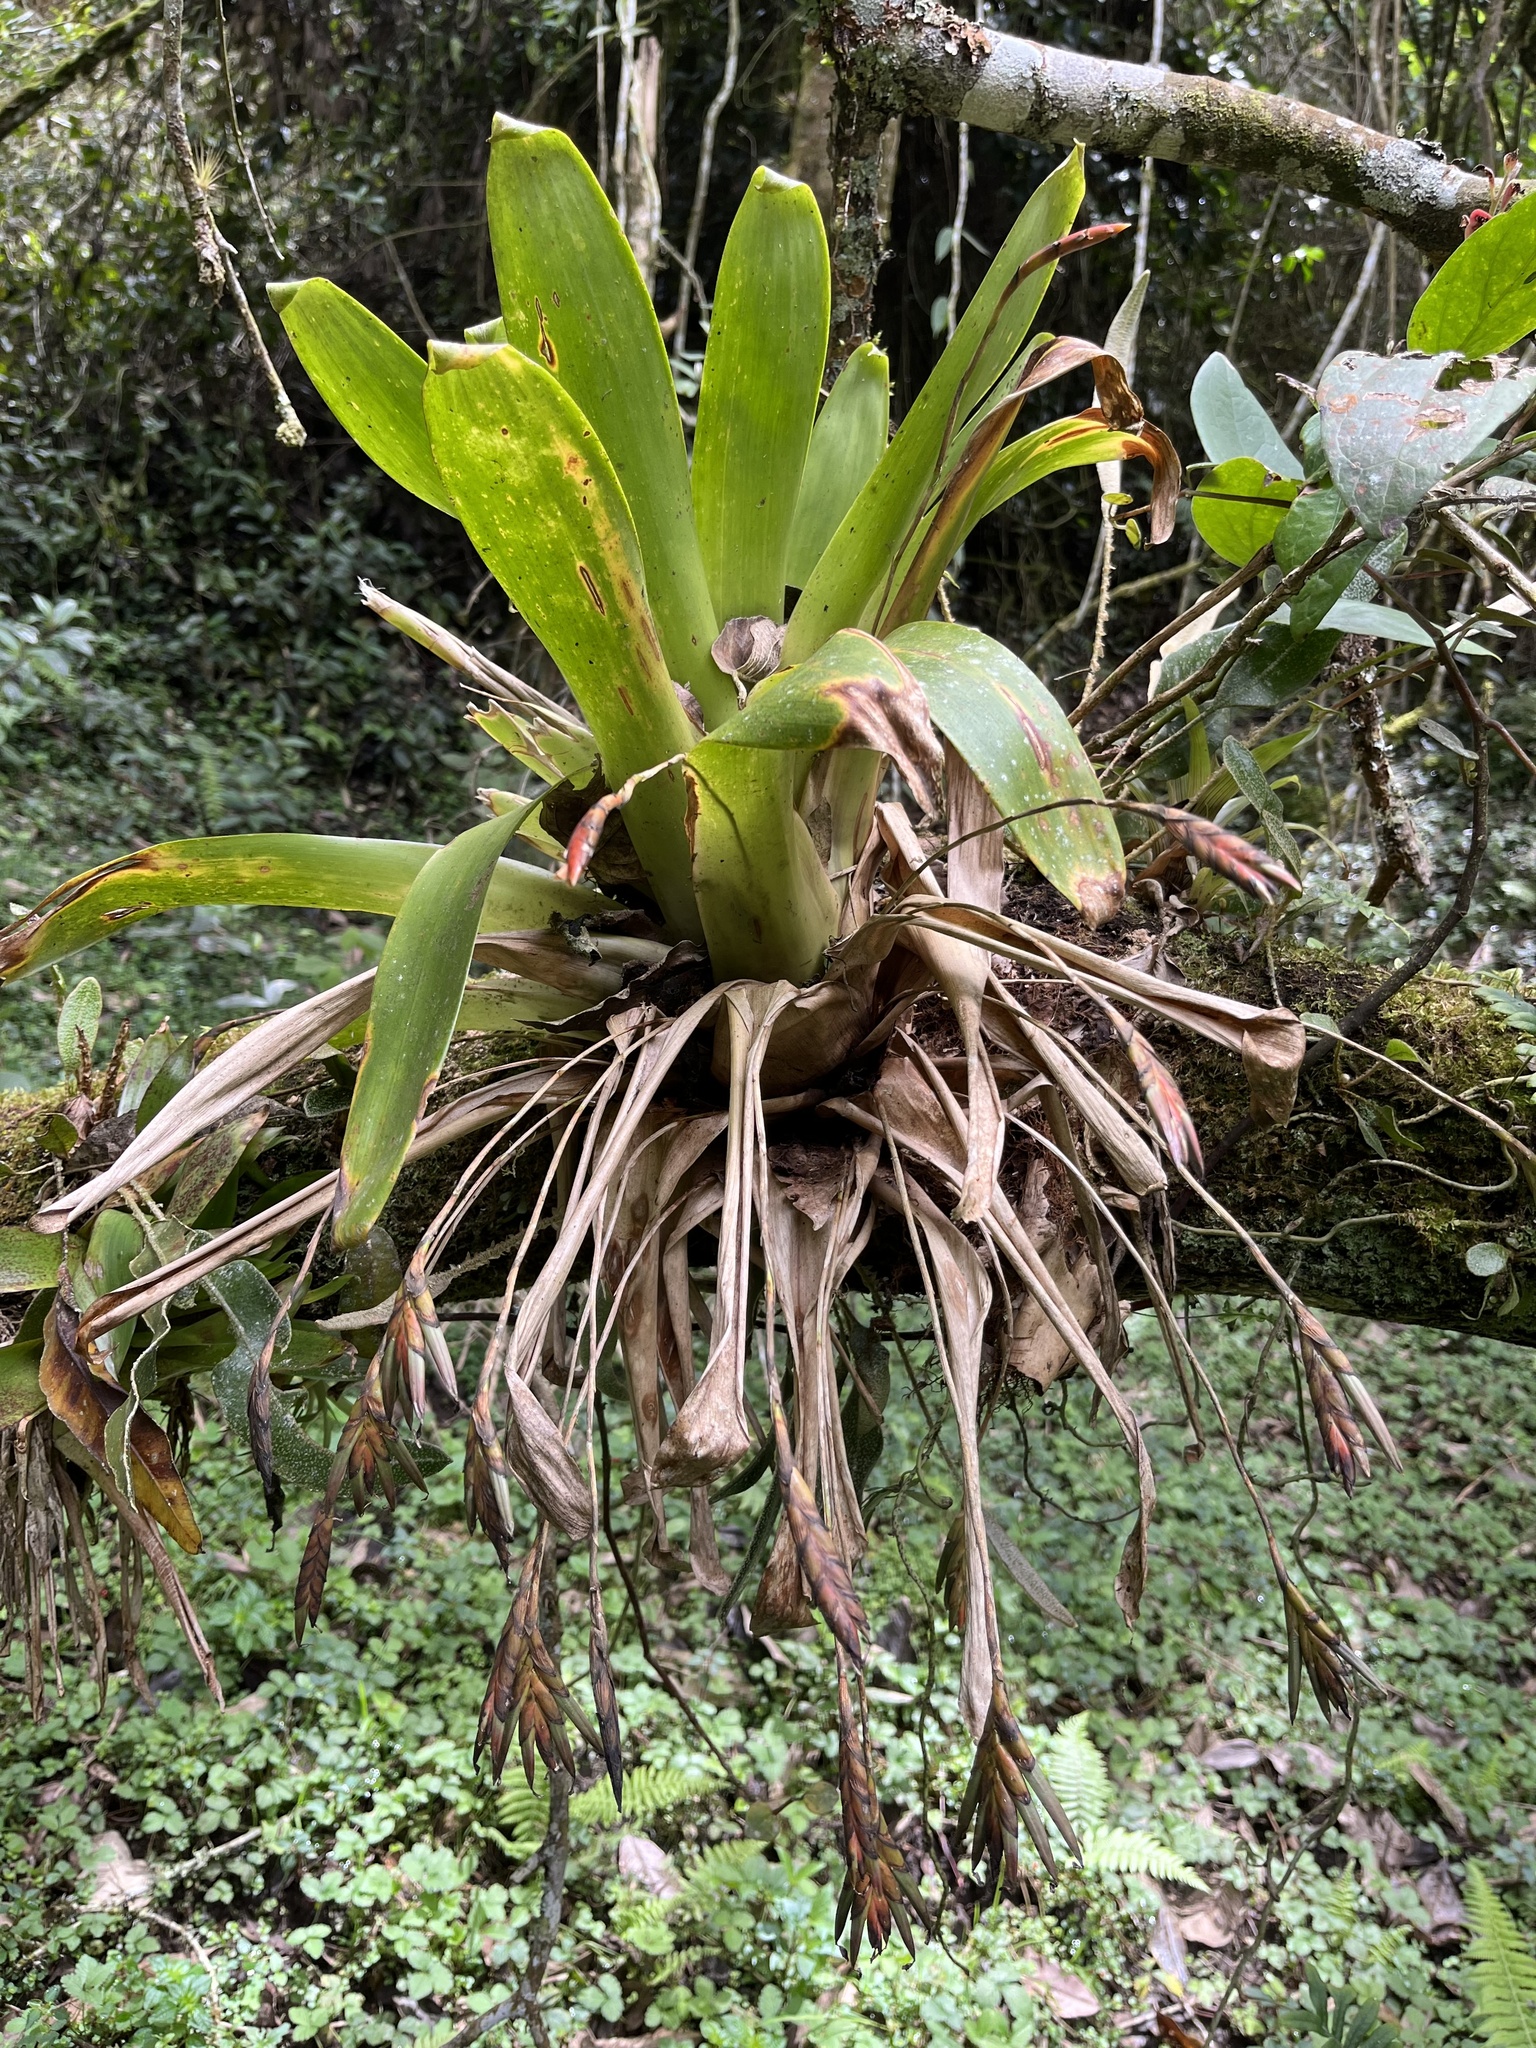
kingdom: Plantae
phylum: Tracheophyta
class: Liliopsida
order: Poales
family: Bromeliaceae
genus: Tillandsia
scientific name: Tillandsia complanata
